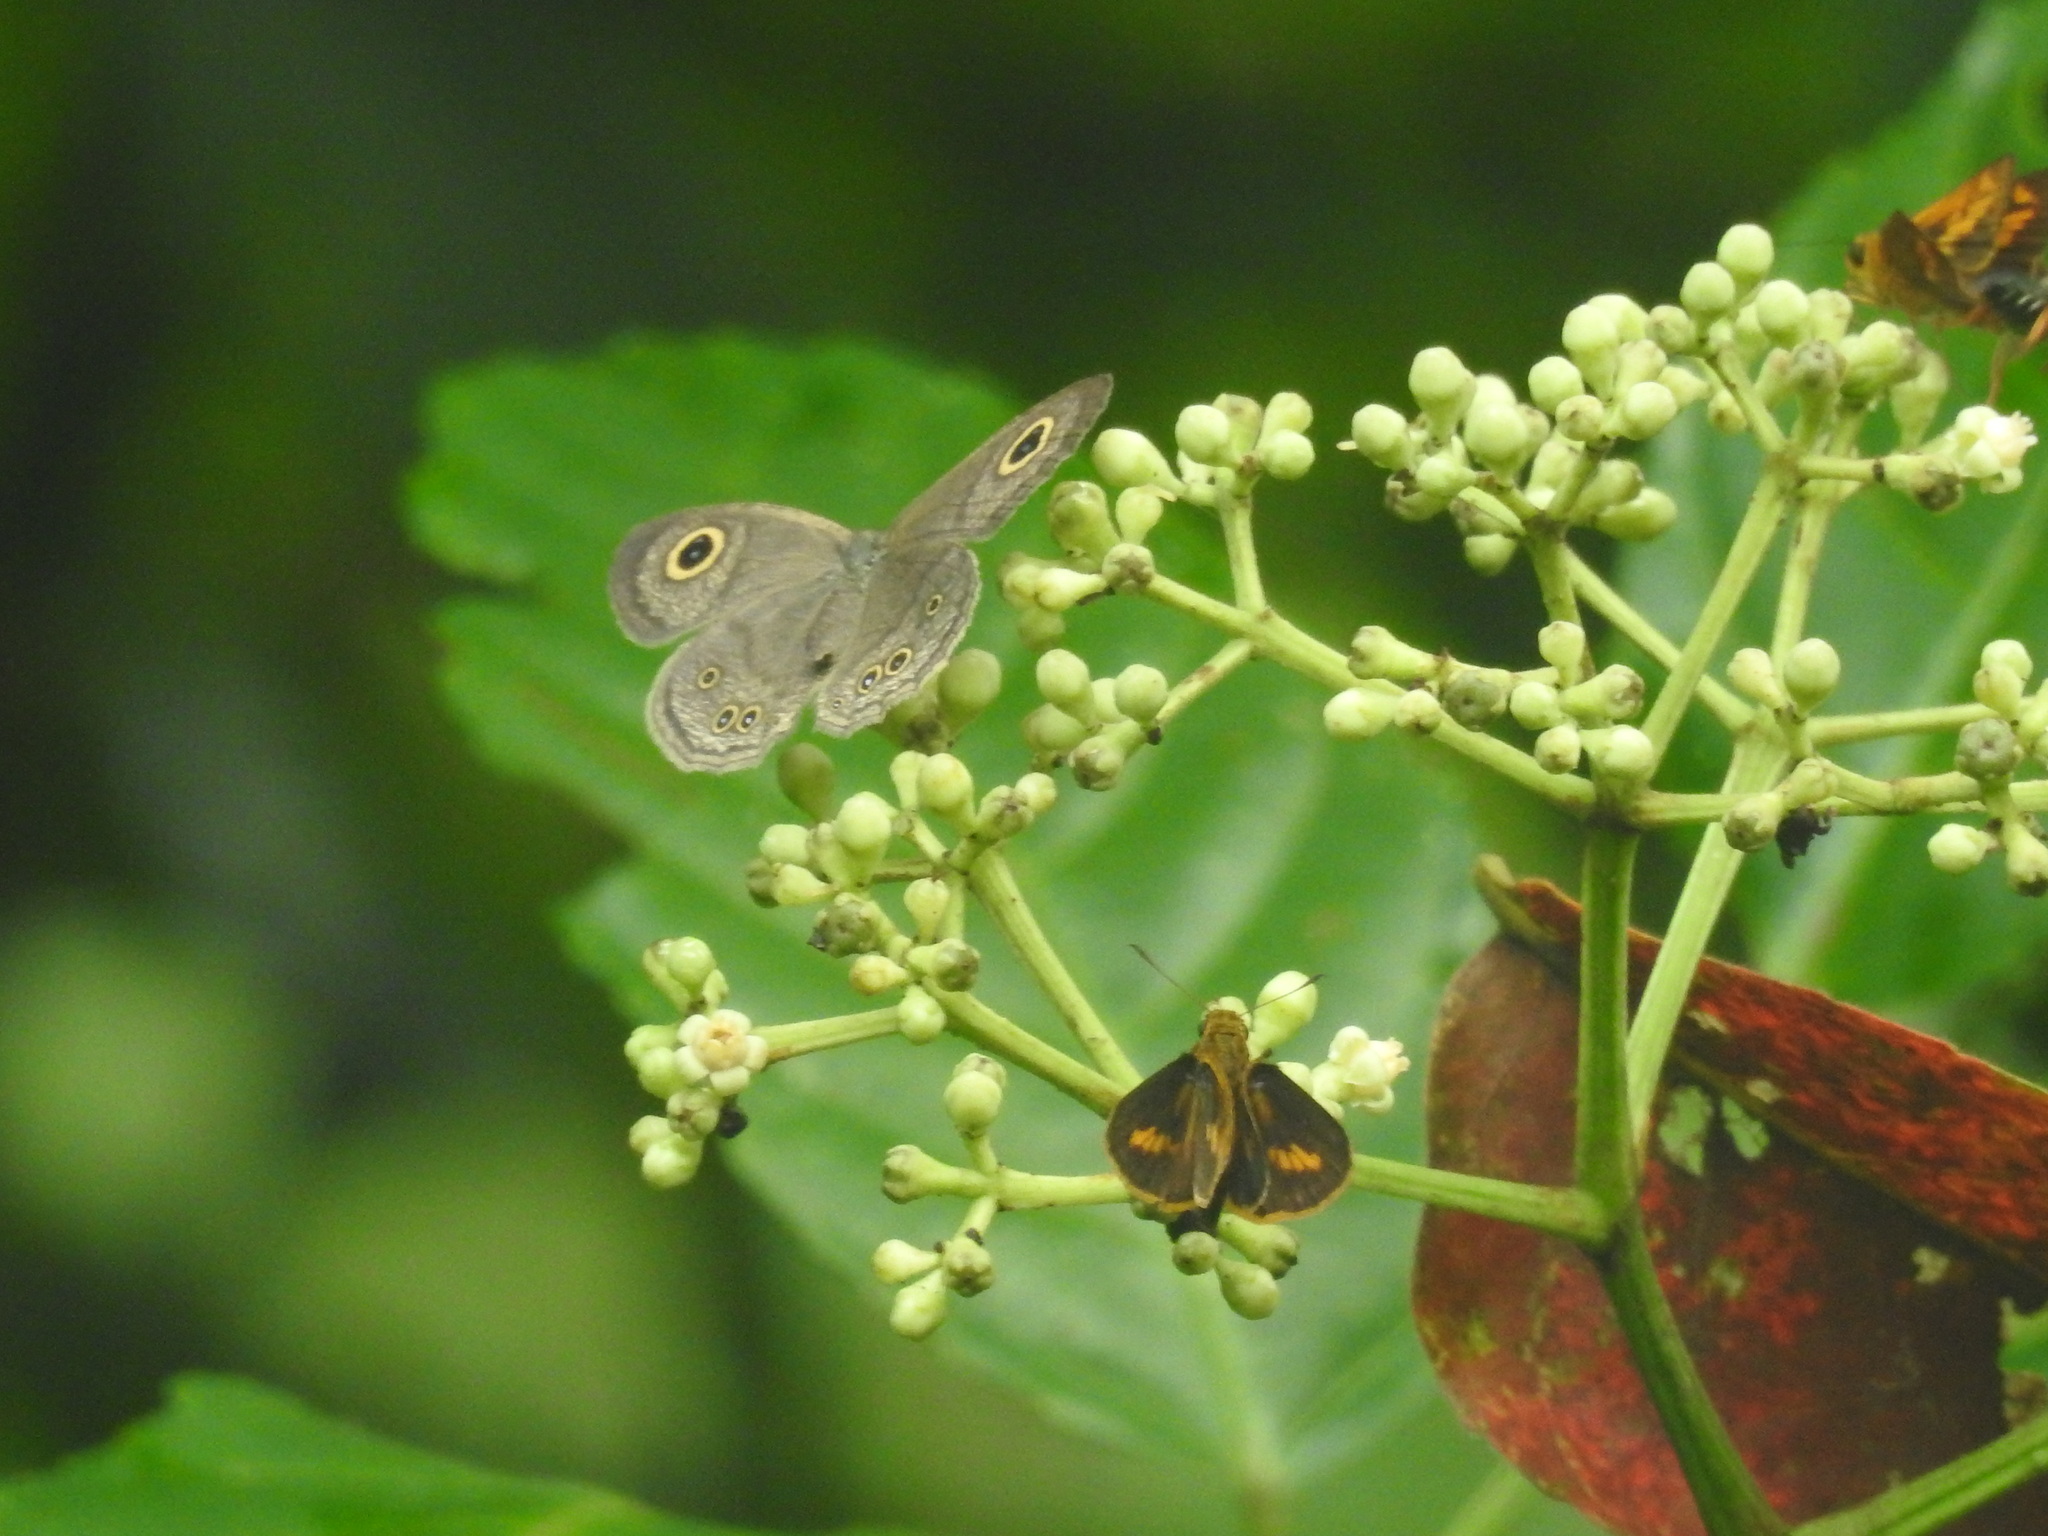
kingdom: Animalia
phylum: Arthropoda
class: Insecta
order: Lepidoptera
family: Nymphalidae
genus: Ypthima
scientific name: Ypthima baldus
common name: Common five-ring
